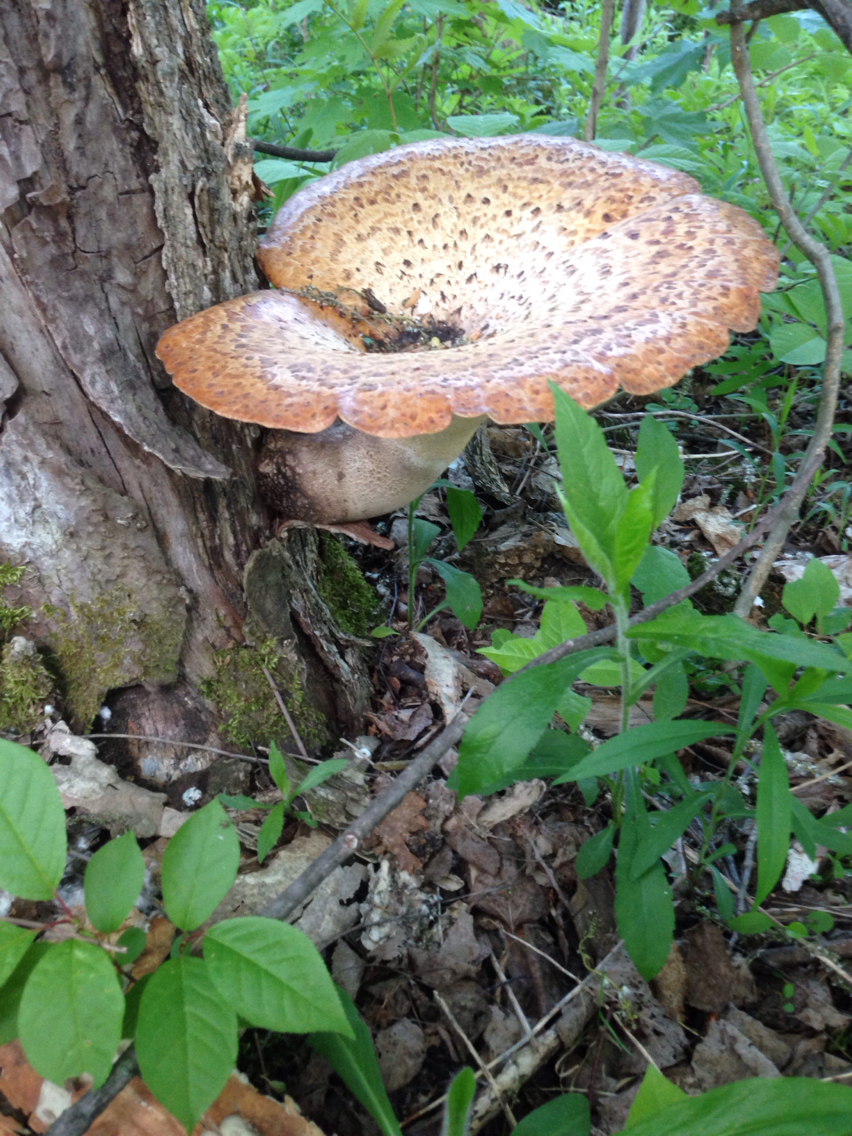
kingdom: Fungi
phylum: Basidiomycota
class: Agaricomycetes
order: Polyporales
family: Polyporaceae
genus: Cerioporus
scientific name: Cerioporus squamosus
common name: Dryad's saddle
